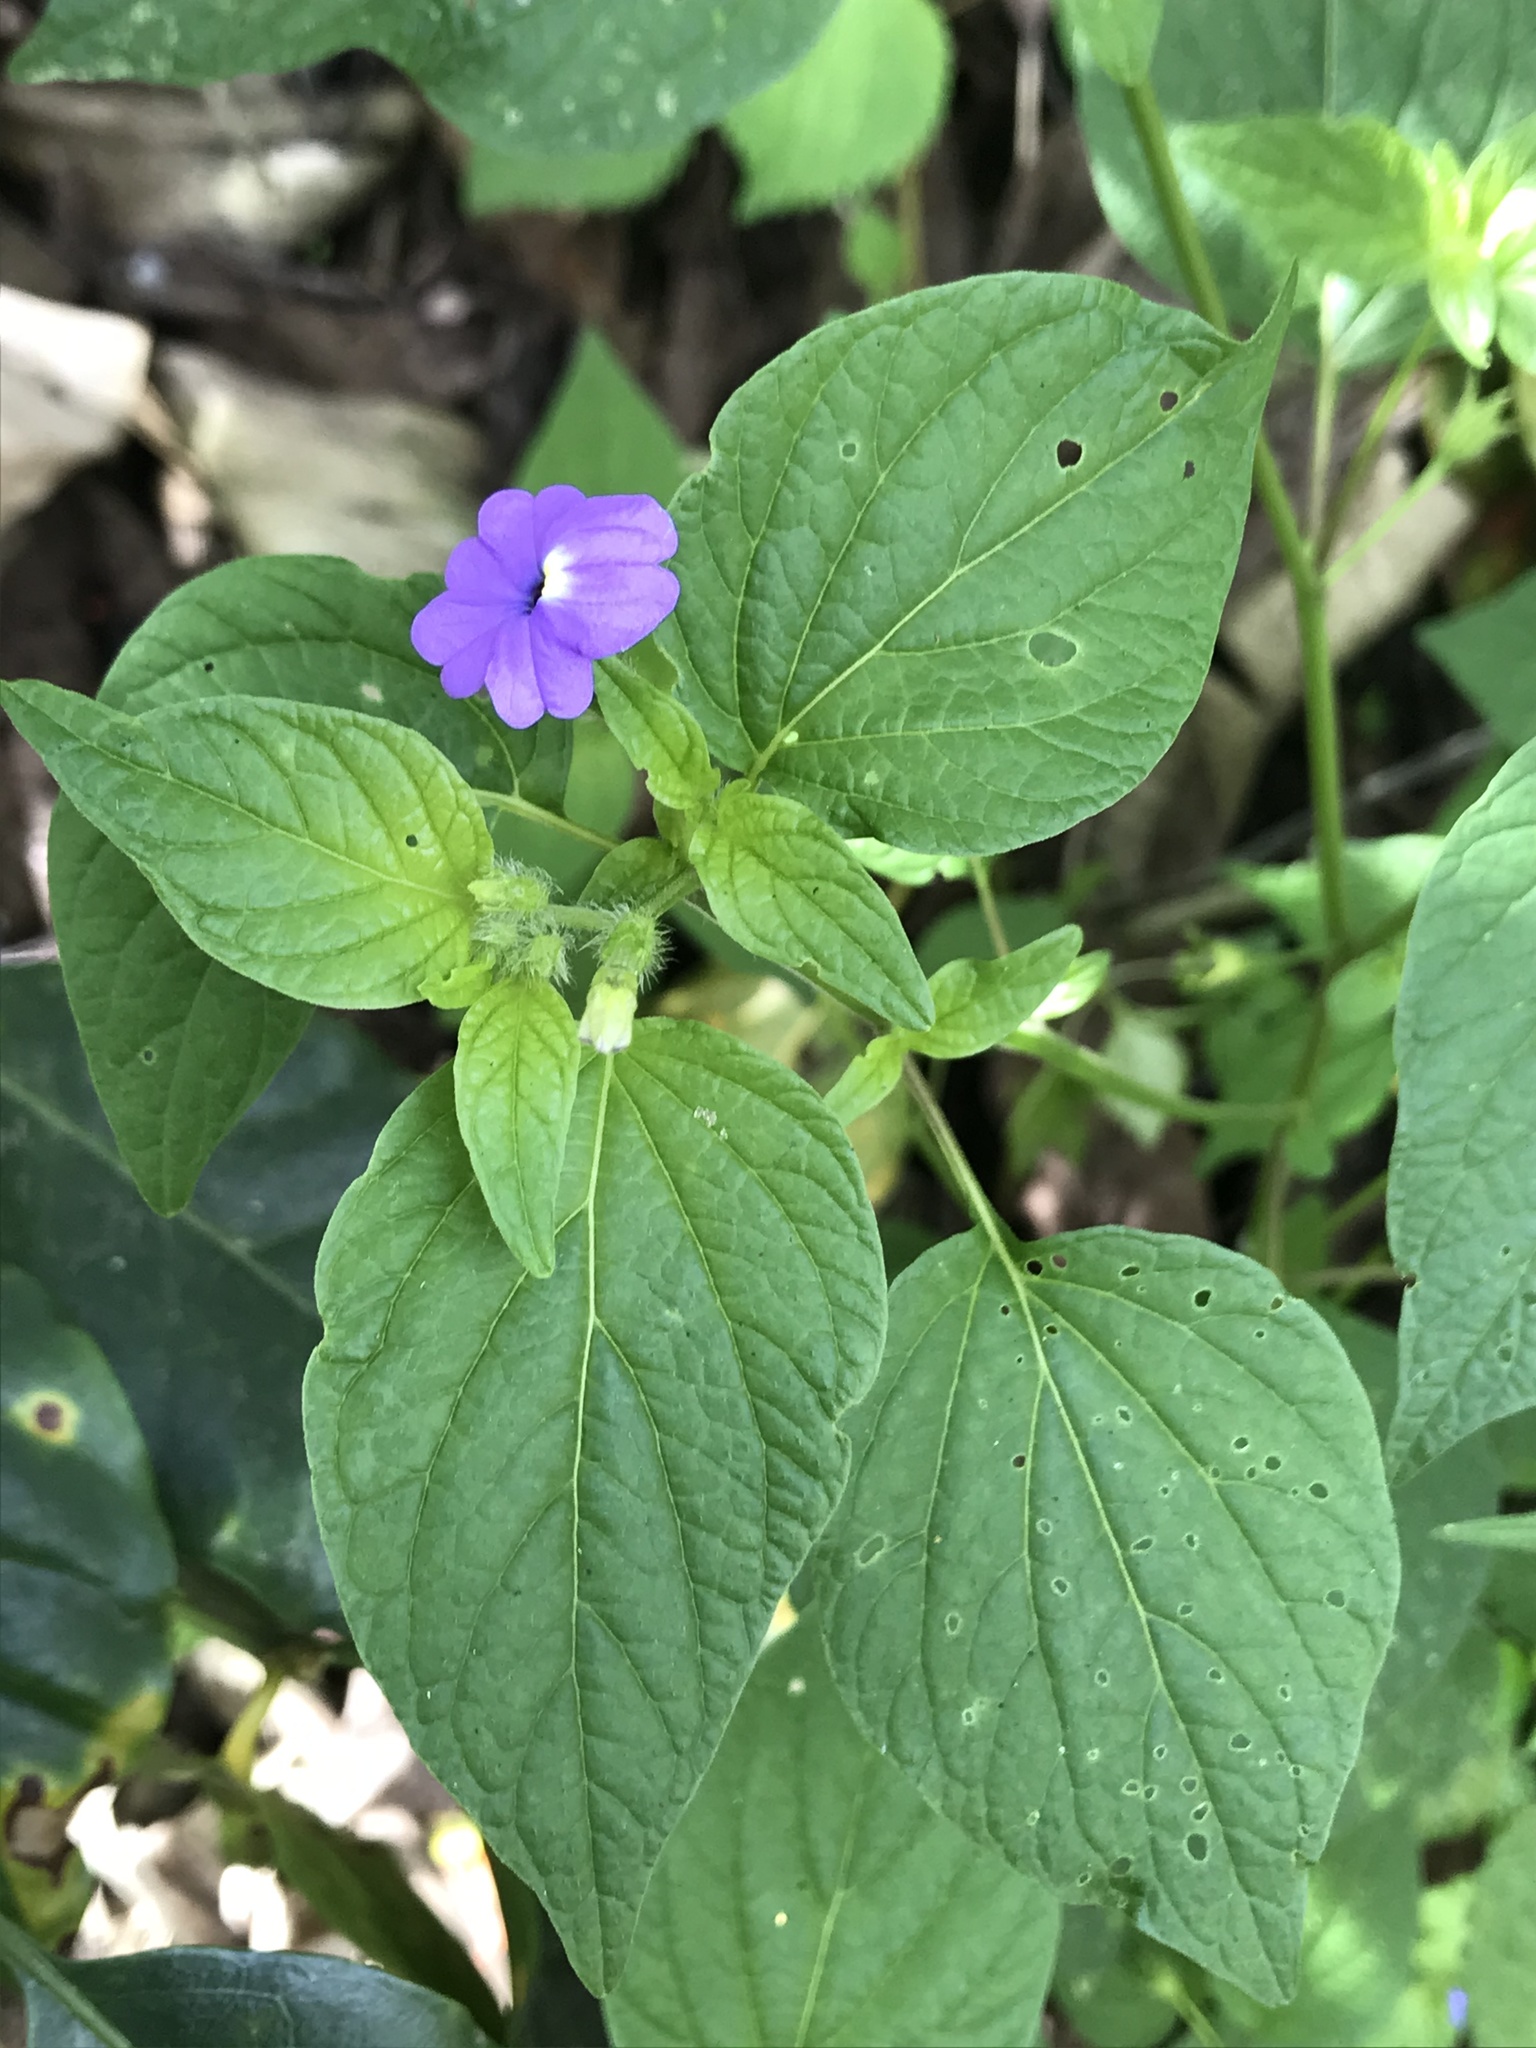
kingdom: Plantae
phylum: Tracheophyta
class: Magnoliopsida
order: Solanales
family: Solanaceae
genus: Browallia
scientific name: Browallia americana
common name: Jamaican forget-me-not
